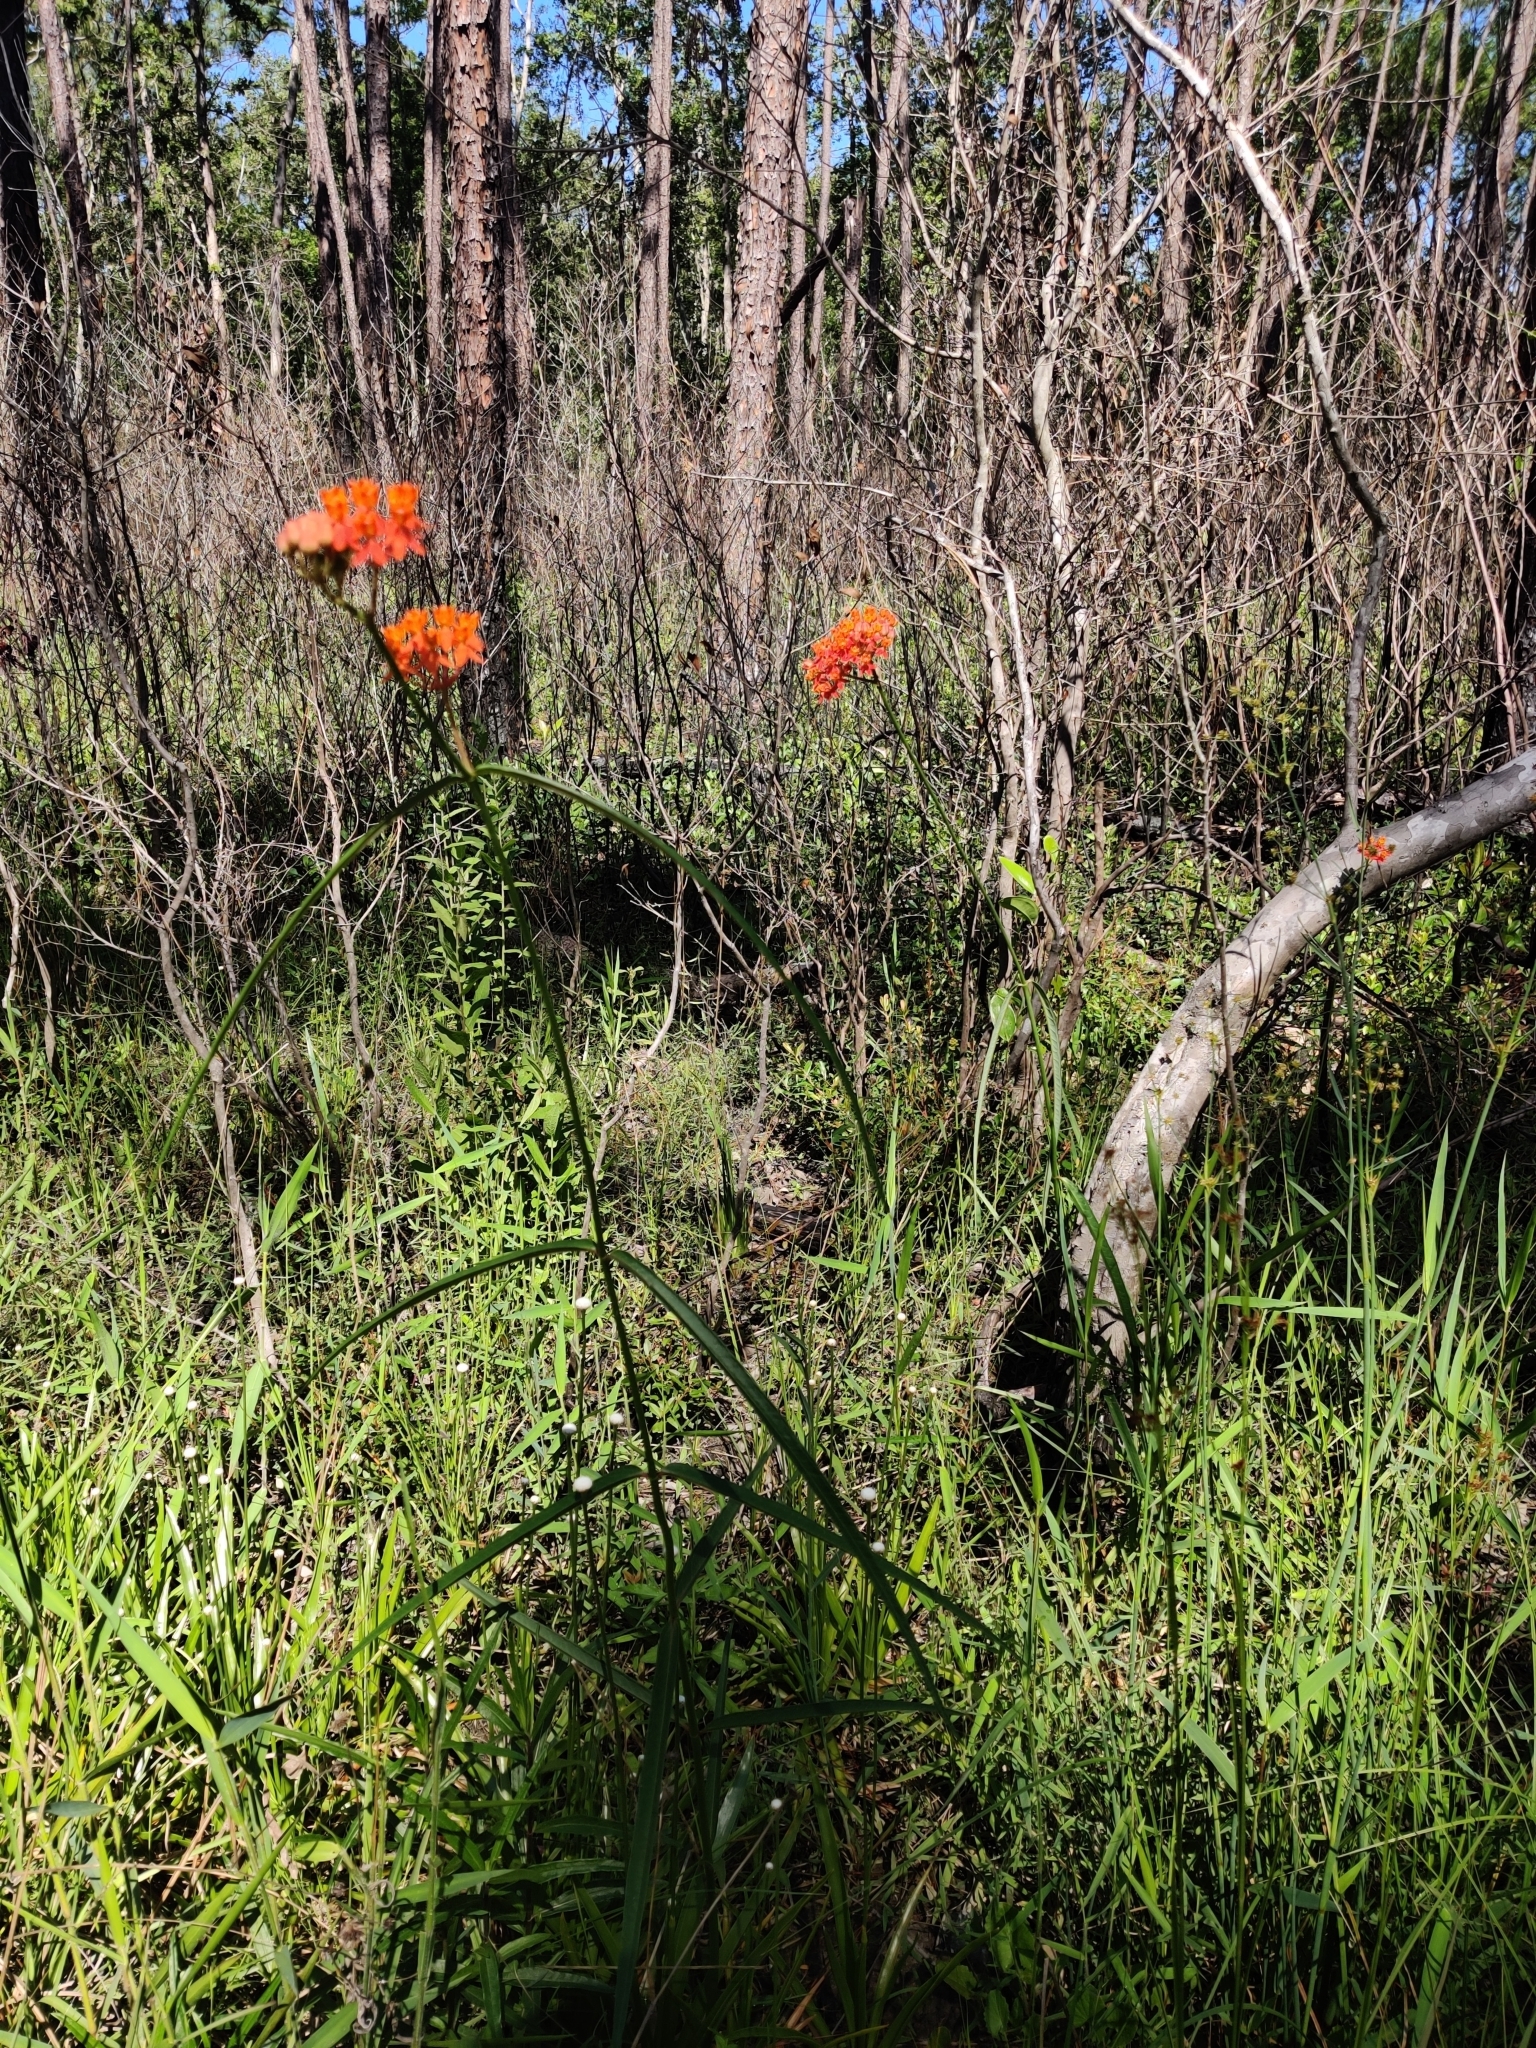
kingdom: Plantae
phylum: Tracheophyta
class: Magnoliopsida
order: Gentianales
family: Apocynaceae
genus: Asclepias
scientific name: Asclepias lanceolata
